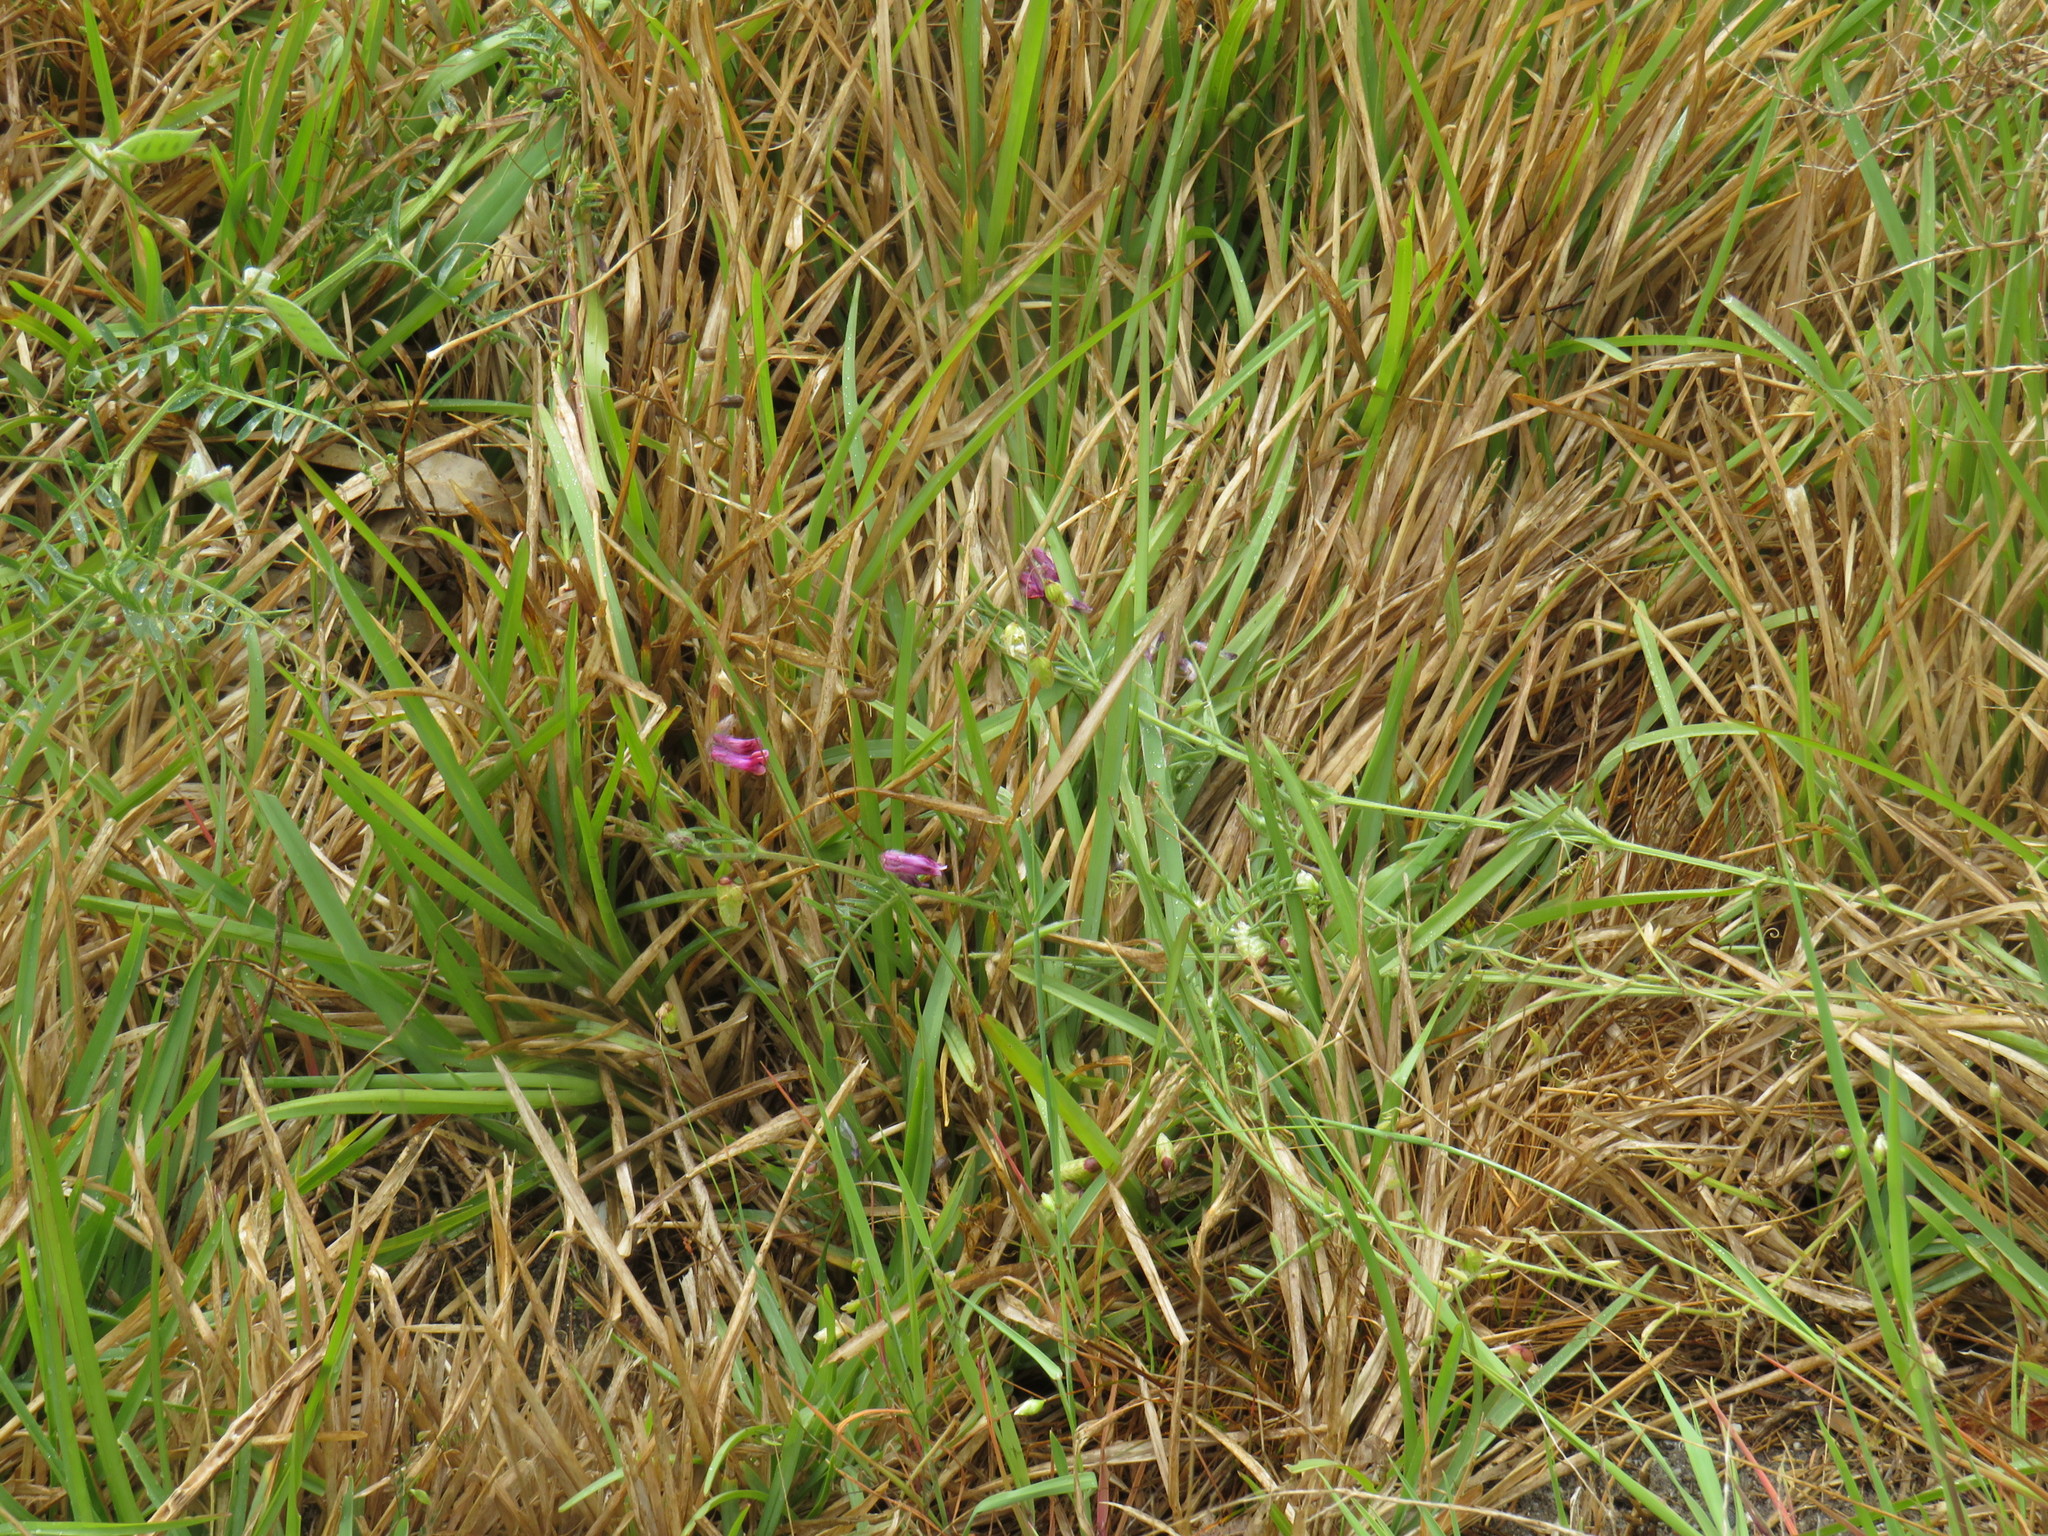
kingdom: Plantae
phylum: Tracheophyta
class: Magnoliopsida
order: Fabales
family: Fabaceae
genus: Vicia
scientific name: Vicia benghalensis
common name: Purple vetch
